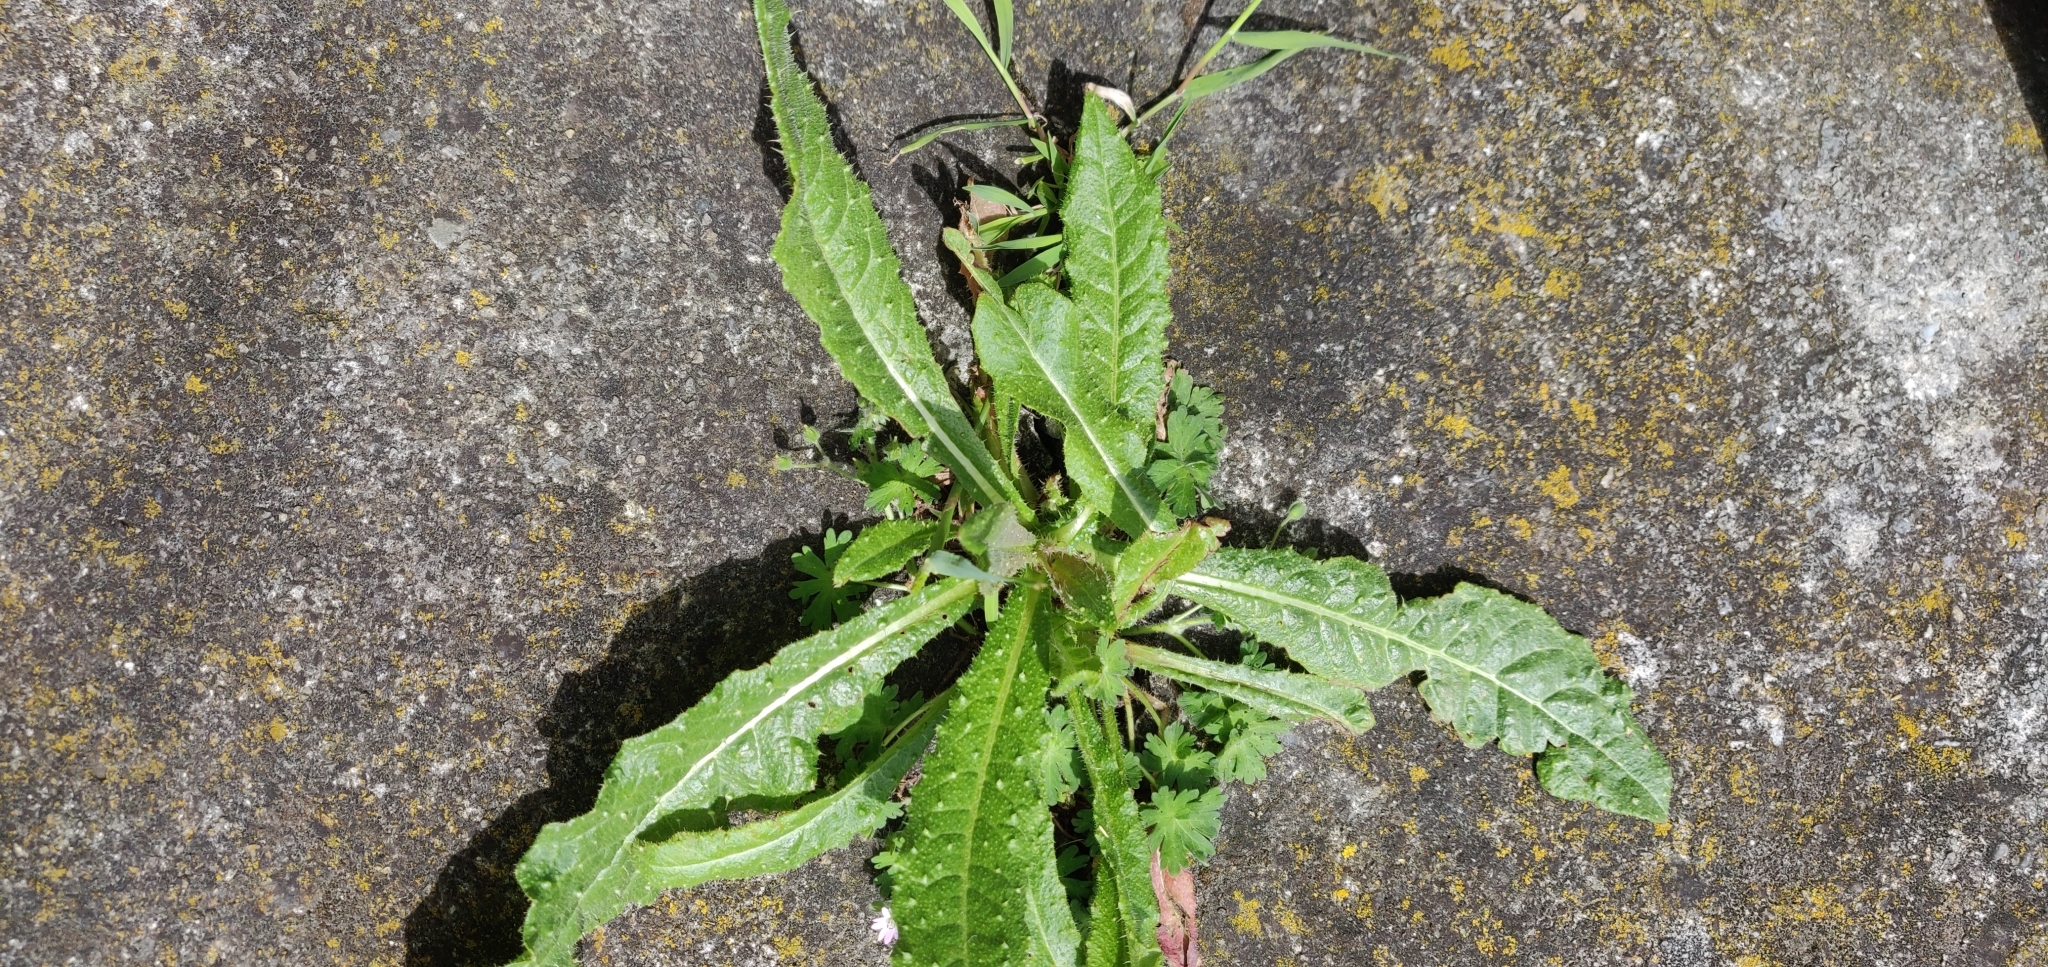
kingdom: Plantae
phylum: Tracheophyta
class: Magnoliopsida
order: Asterales
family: Asteraceae
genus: Helminthotheca
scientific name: Helminthotheca echioides
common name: Ox-tongue
